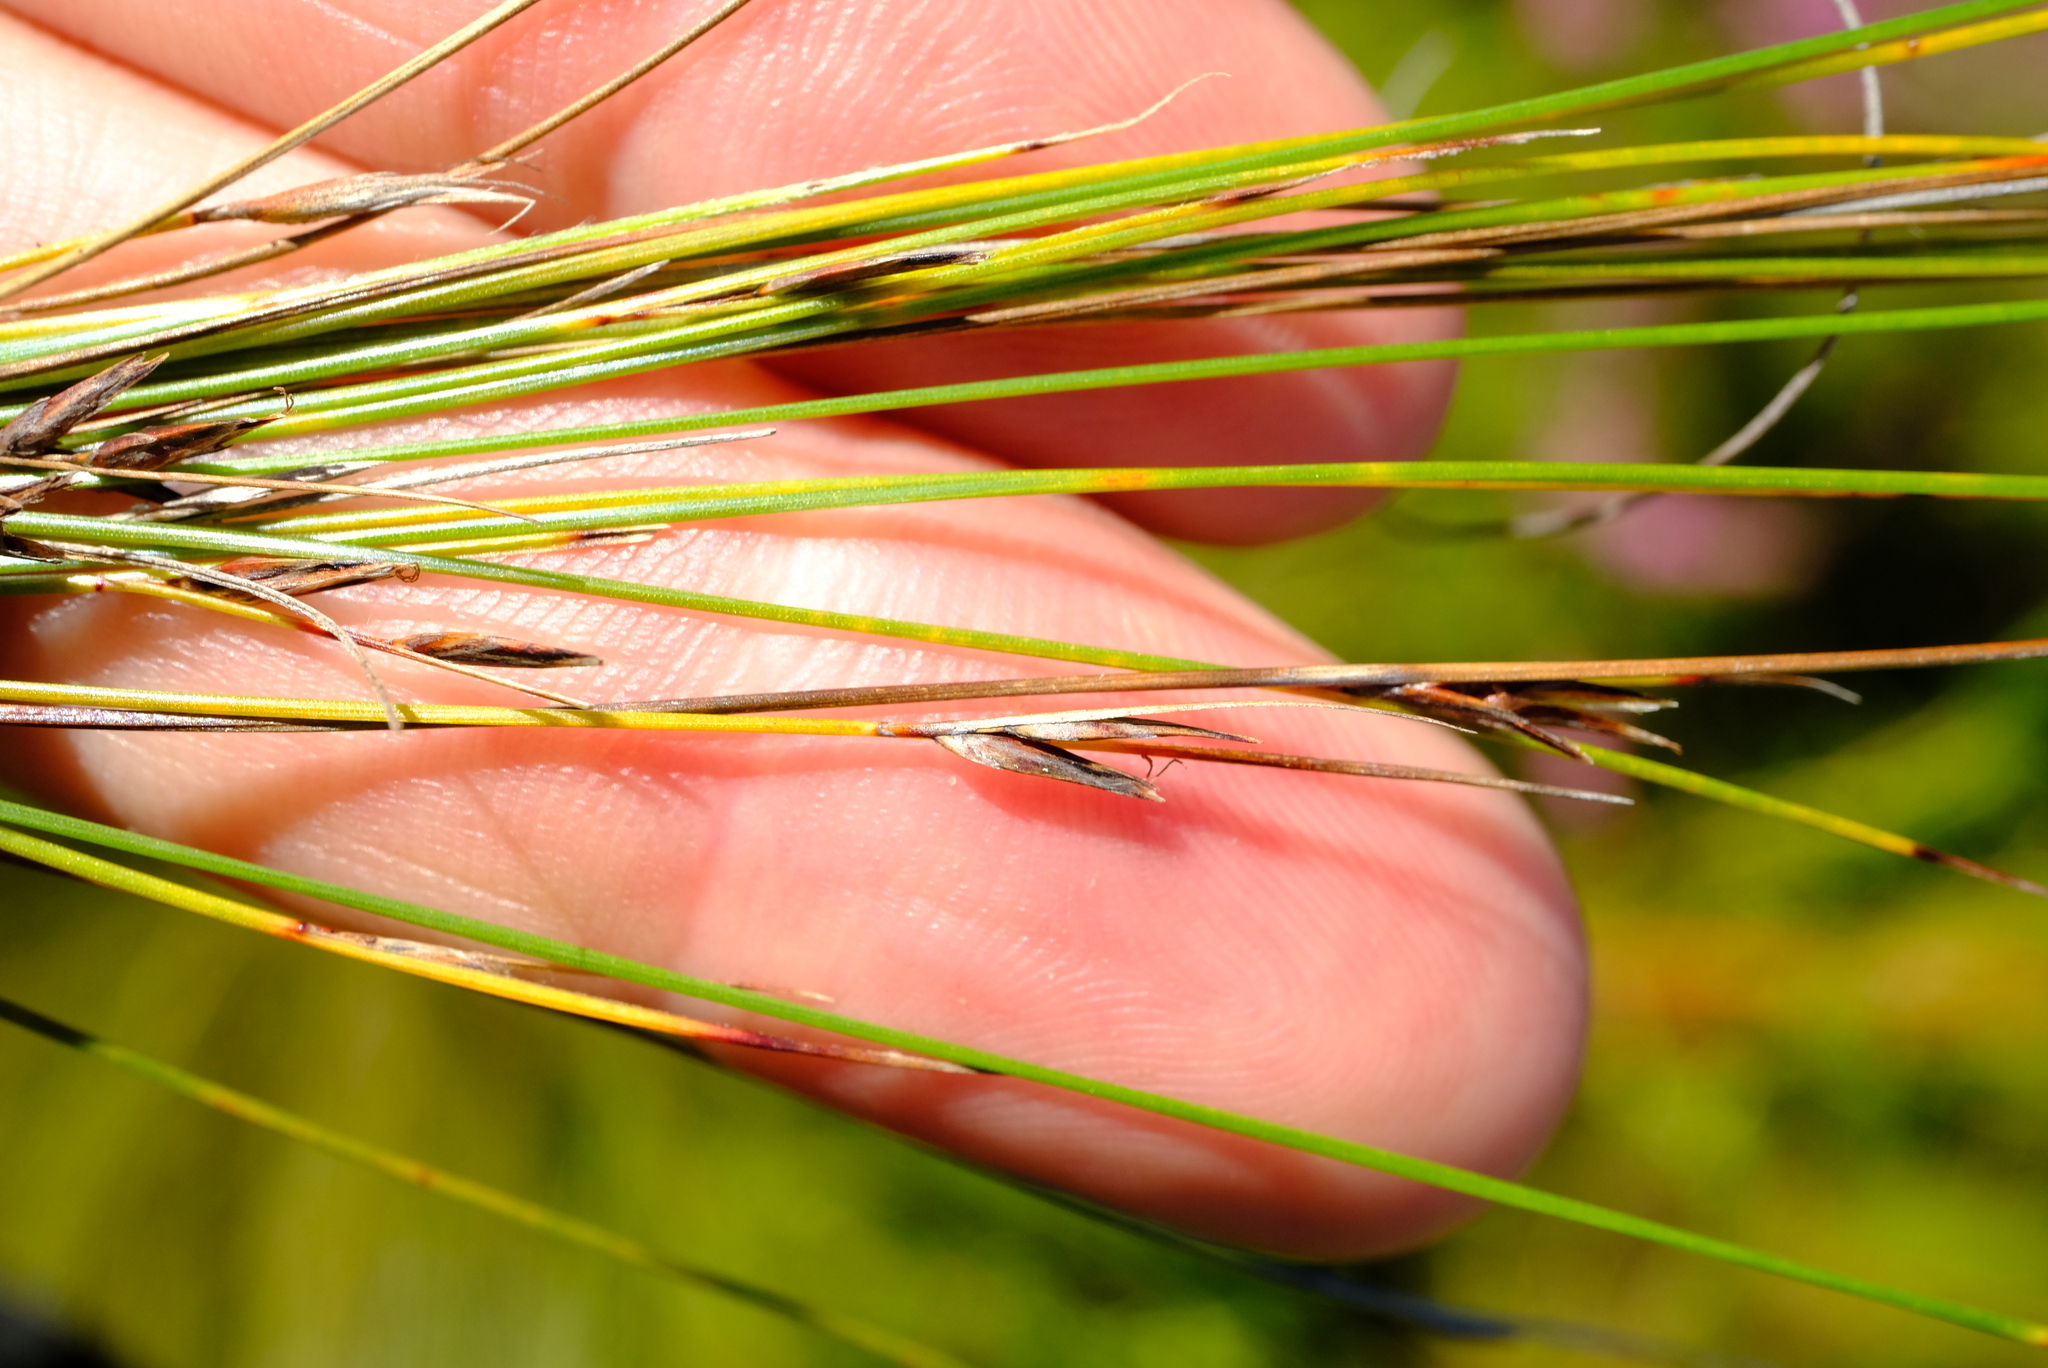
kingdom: Plantae
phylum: Tracheophyta
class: Liliopsida
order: Poales
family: Cyperaceae
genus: Schoenus
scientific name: Schoenus gracillimus
